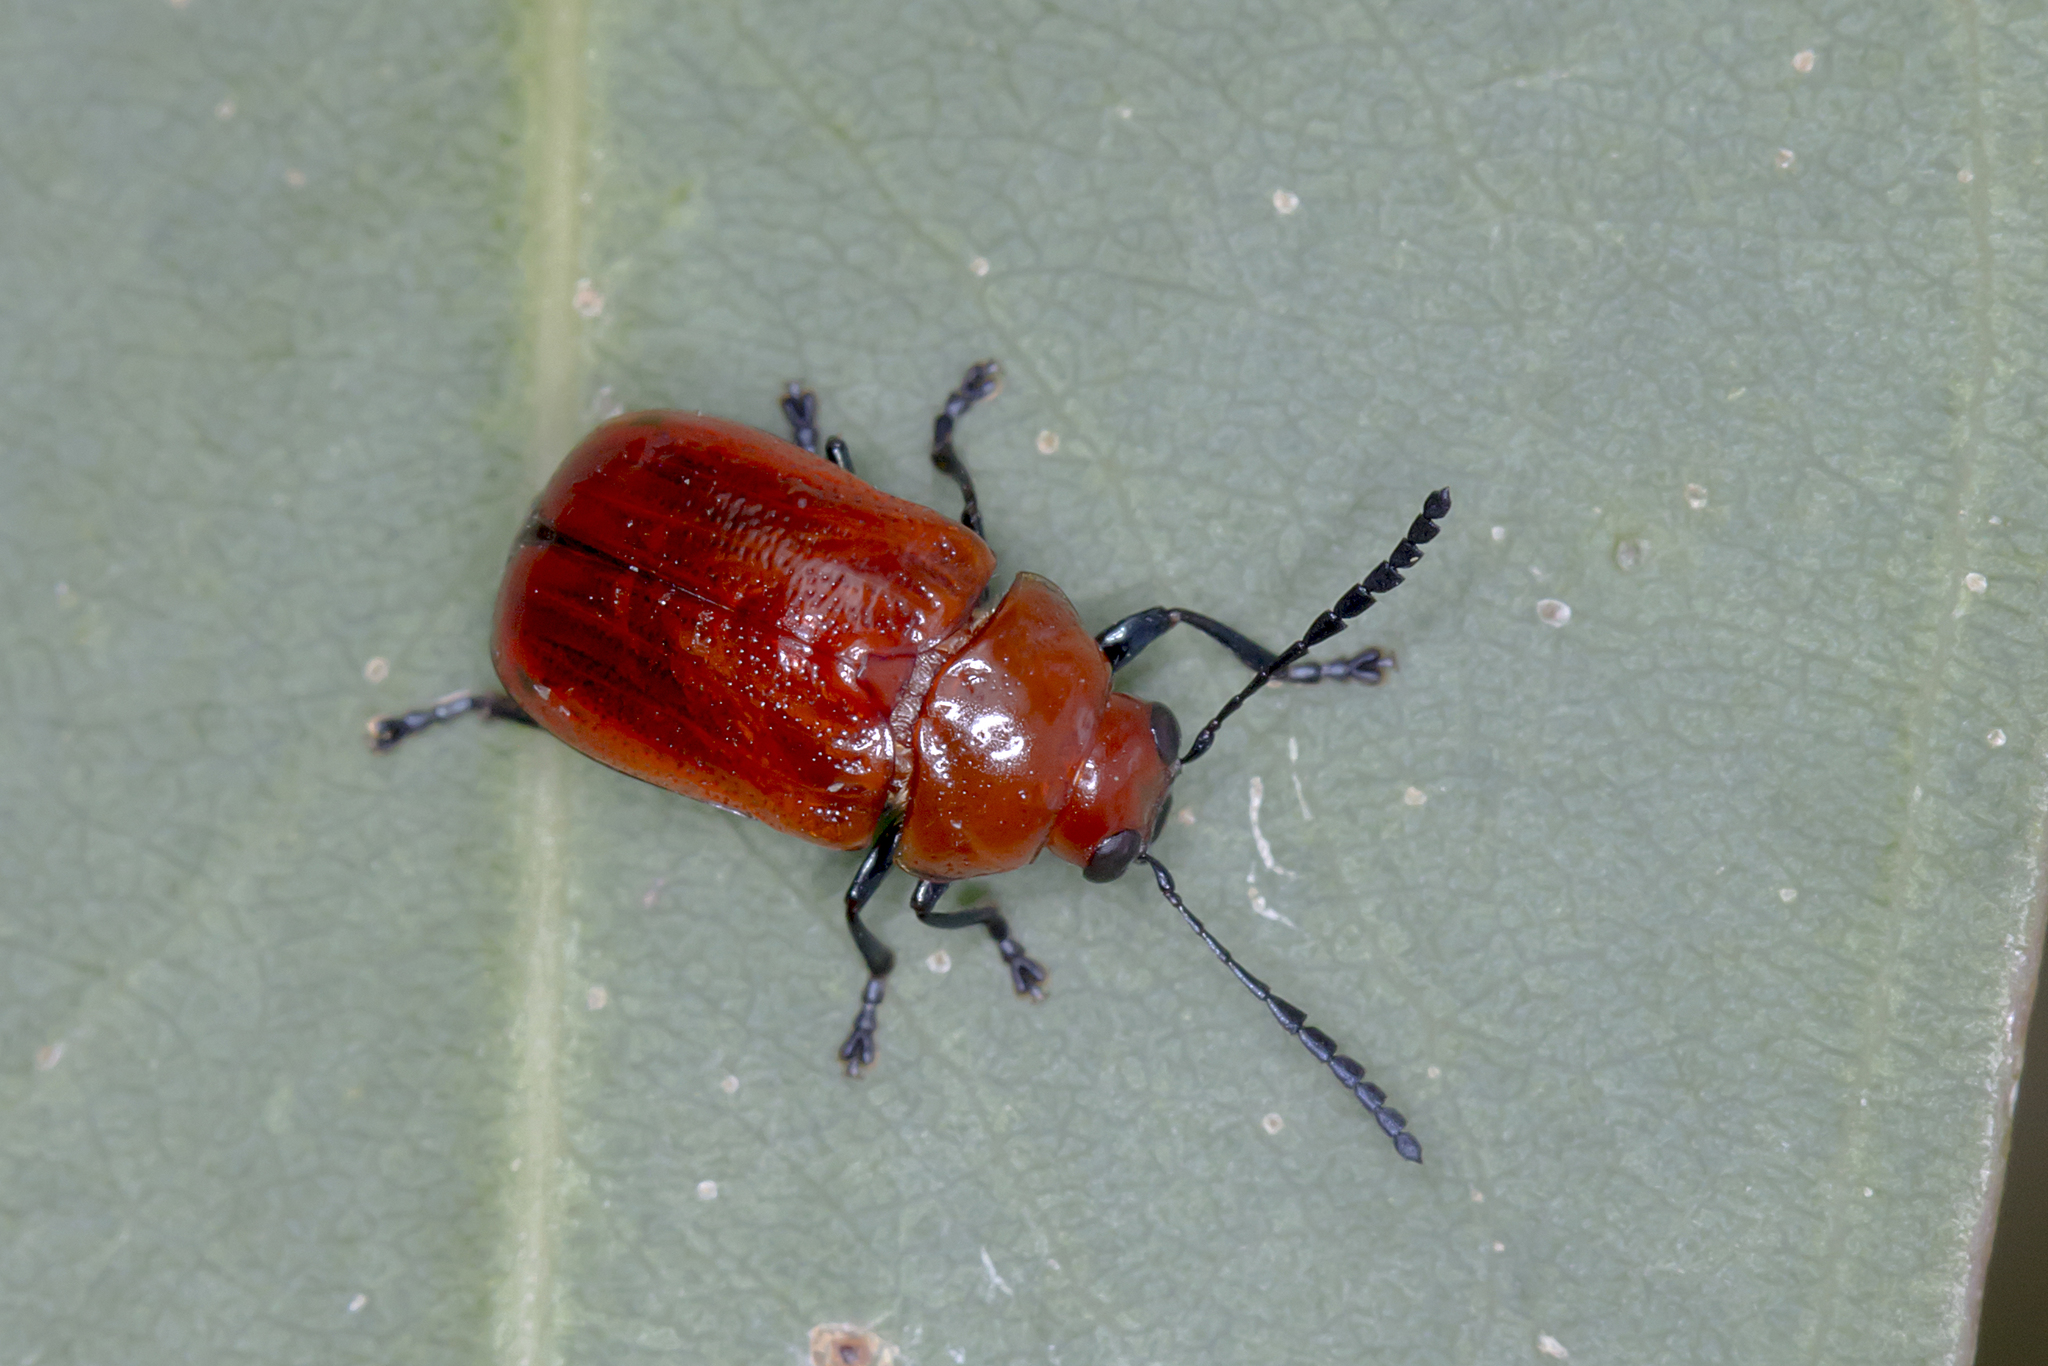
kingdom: Animalia
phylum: Arthropoda
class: Insecta
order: Coleoptera
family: Chrysomelidae
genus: Aporocera
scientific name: Aporocera
